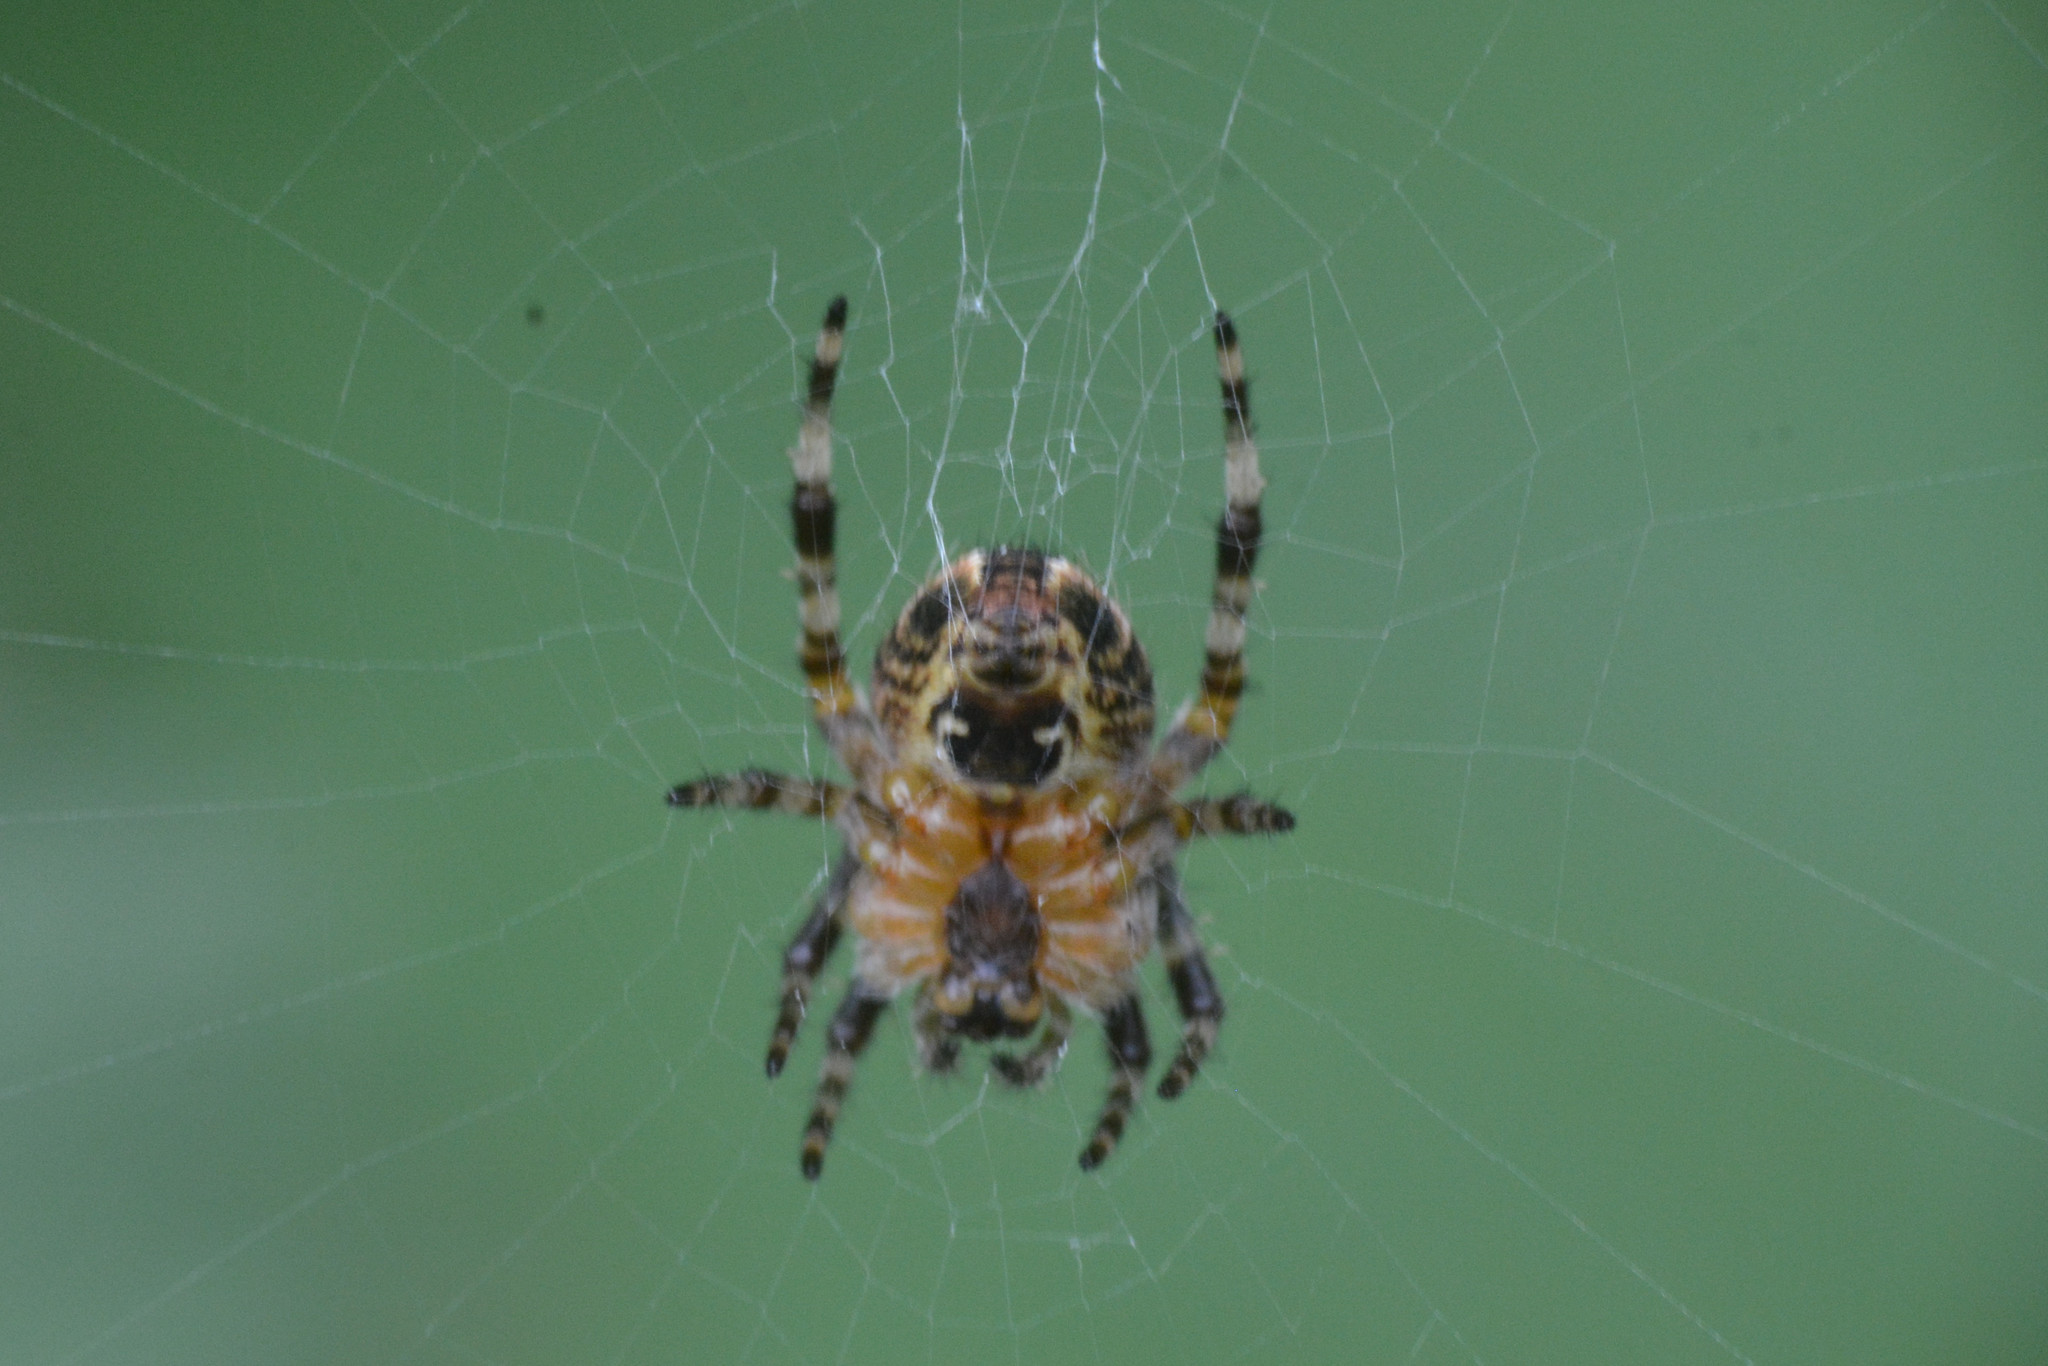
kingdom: Animalia
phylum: Arthropoda
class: Arachnida
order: Araneae
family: Araneidae
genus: Araneus
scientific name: Araneus diadematus
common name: Cross orbweaver
